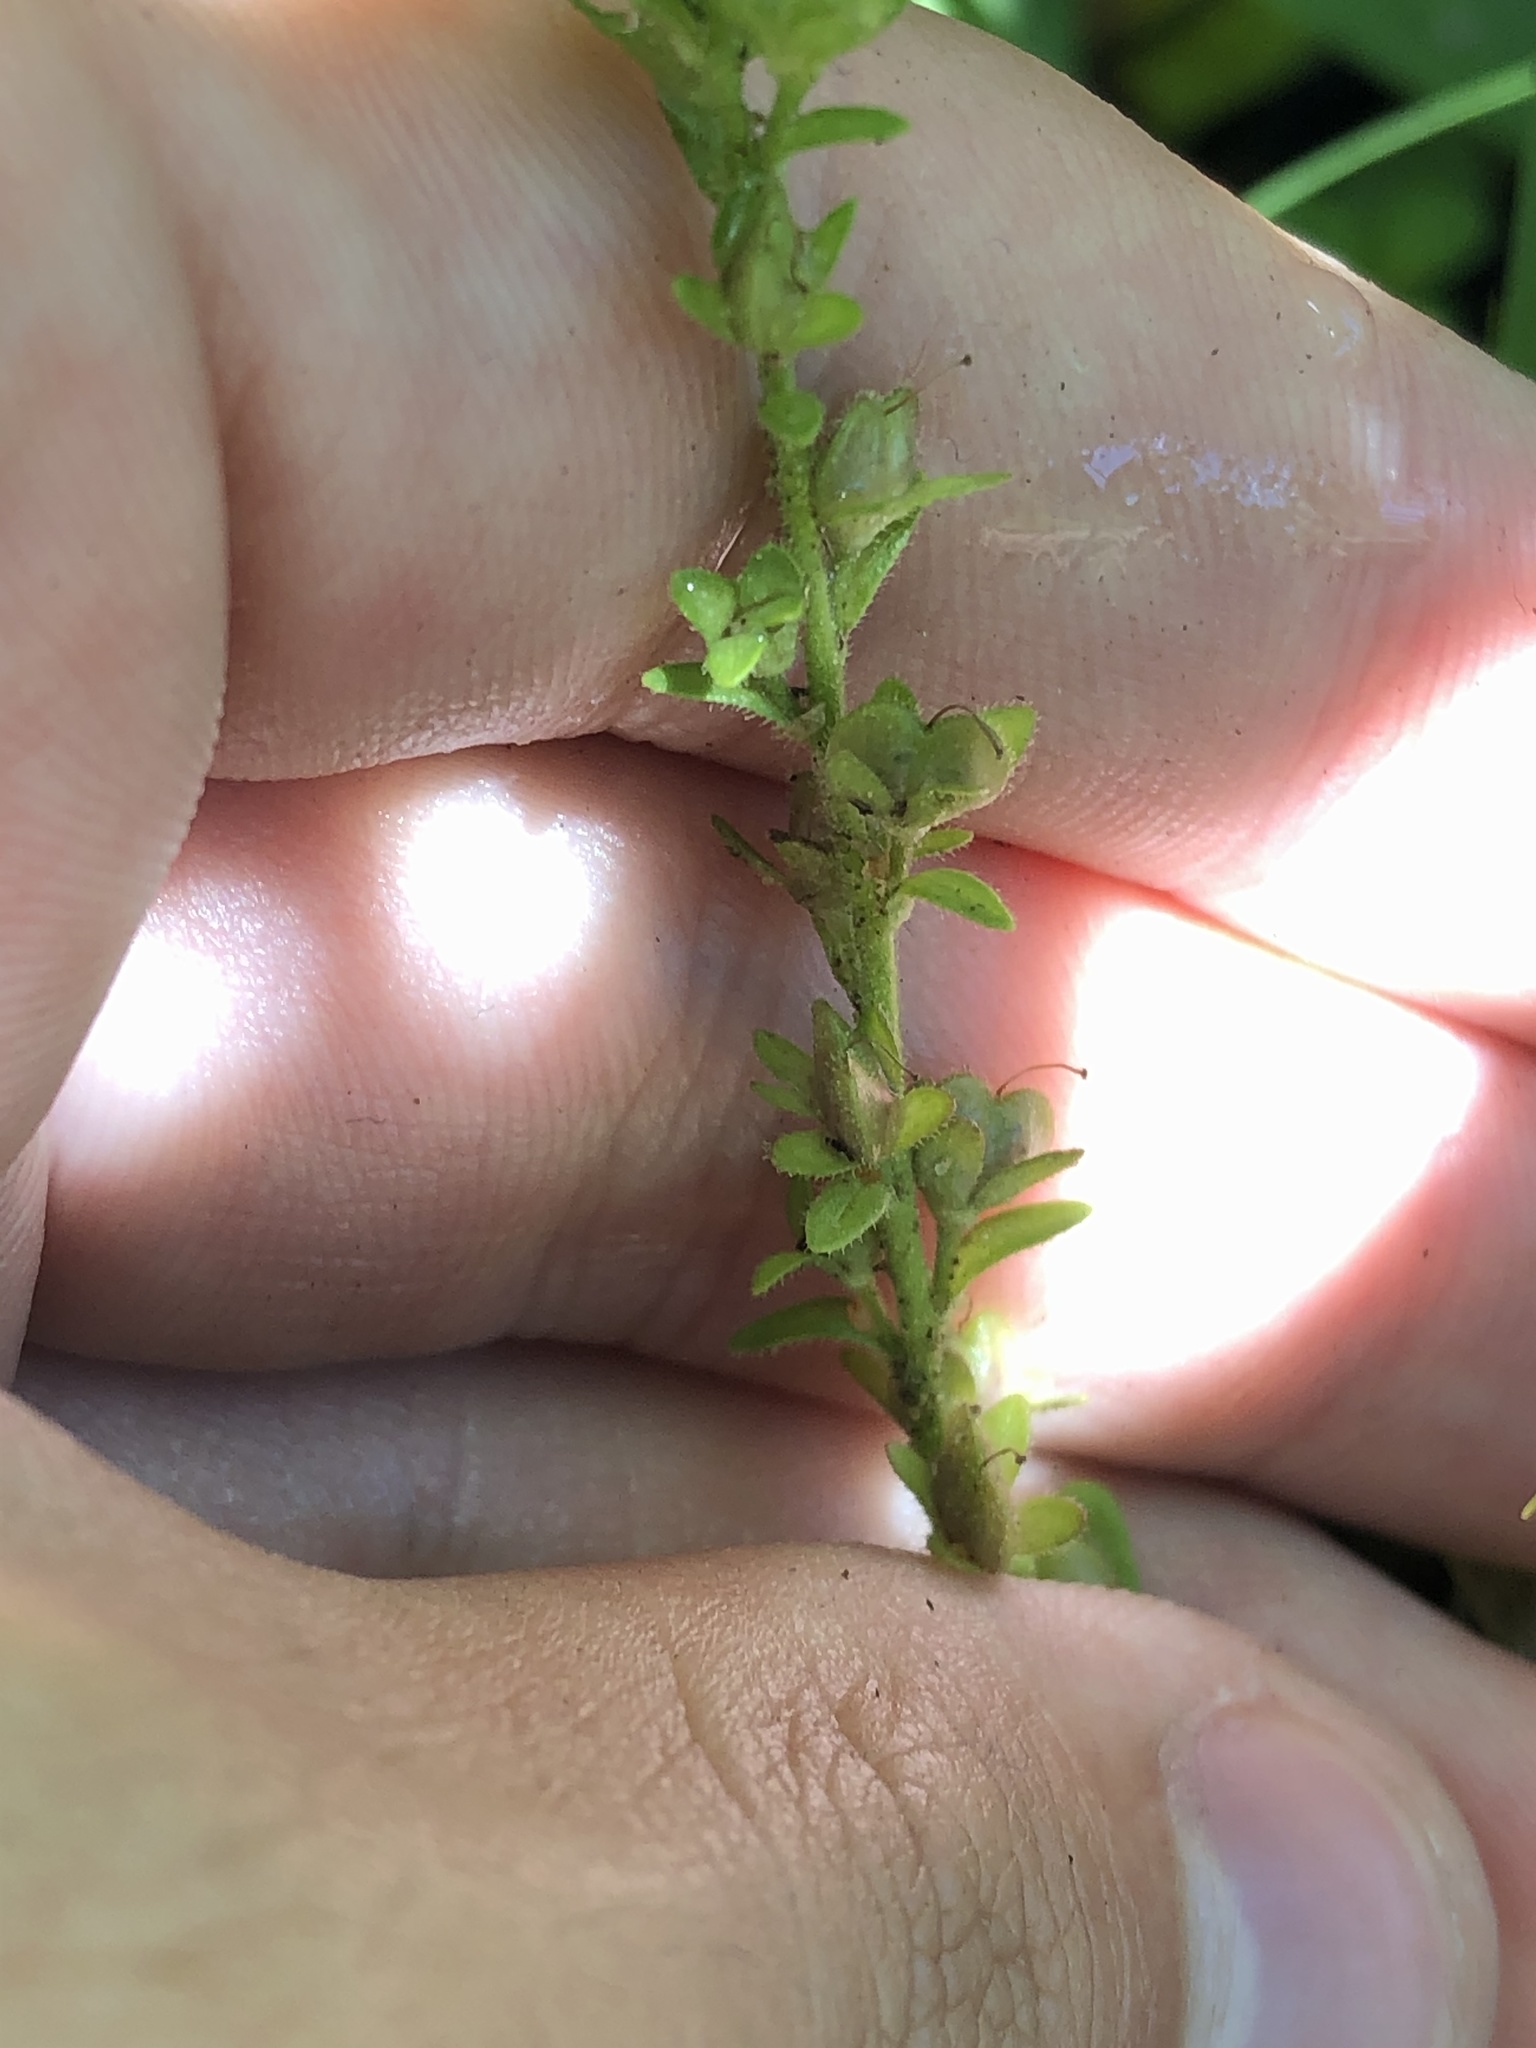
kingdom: Plantae
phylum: Tracheophyta
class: Magnoliopsida
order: Lamiales
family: Plantaginaceae
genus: Veronica
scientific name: Veronica arvensis
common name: Corn speedwell
